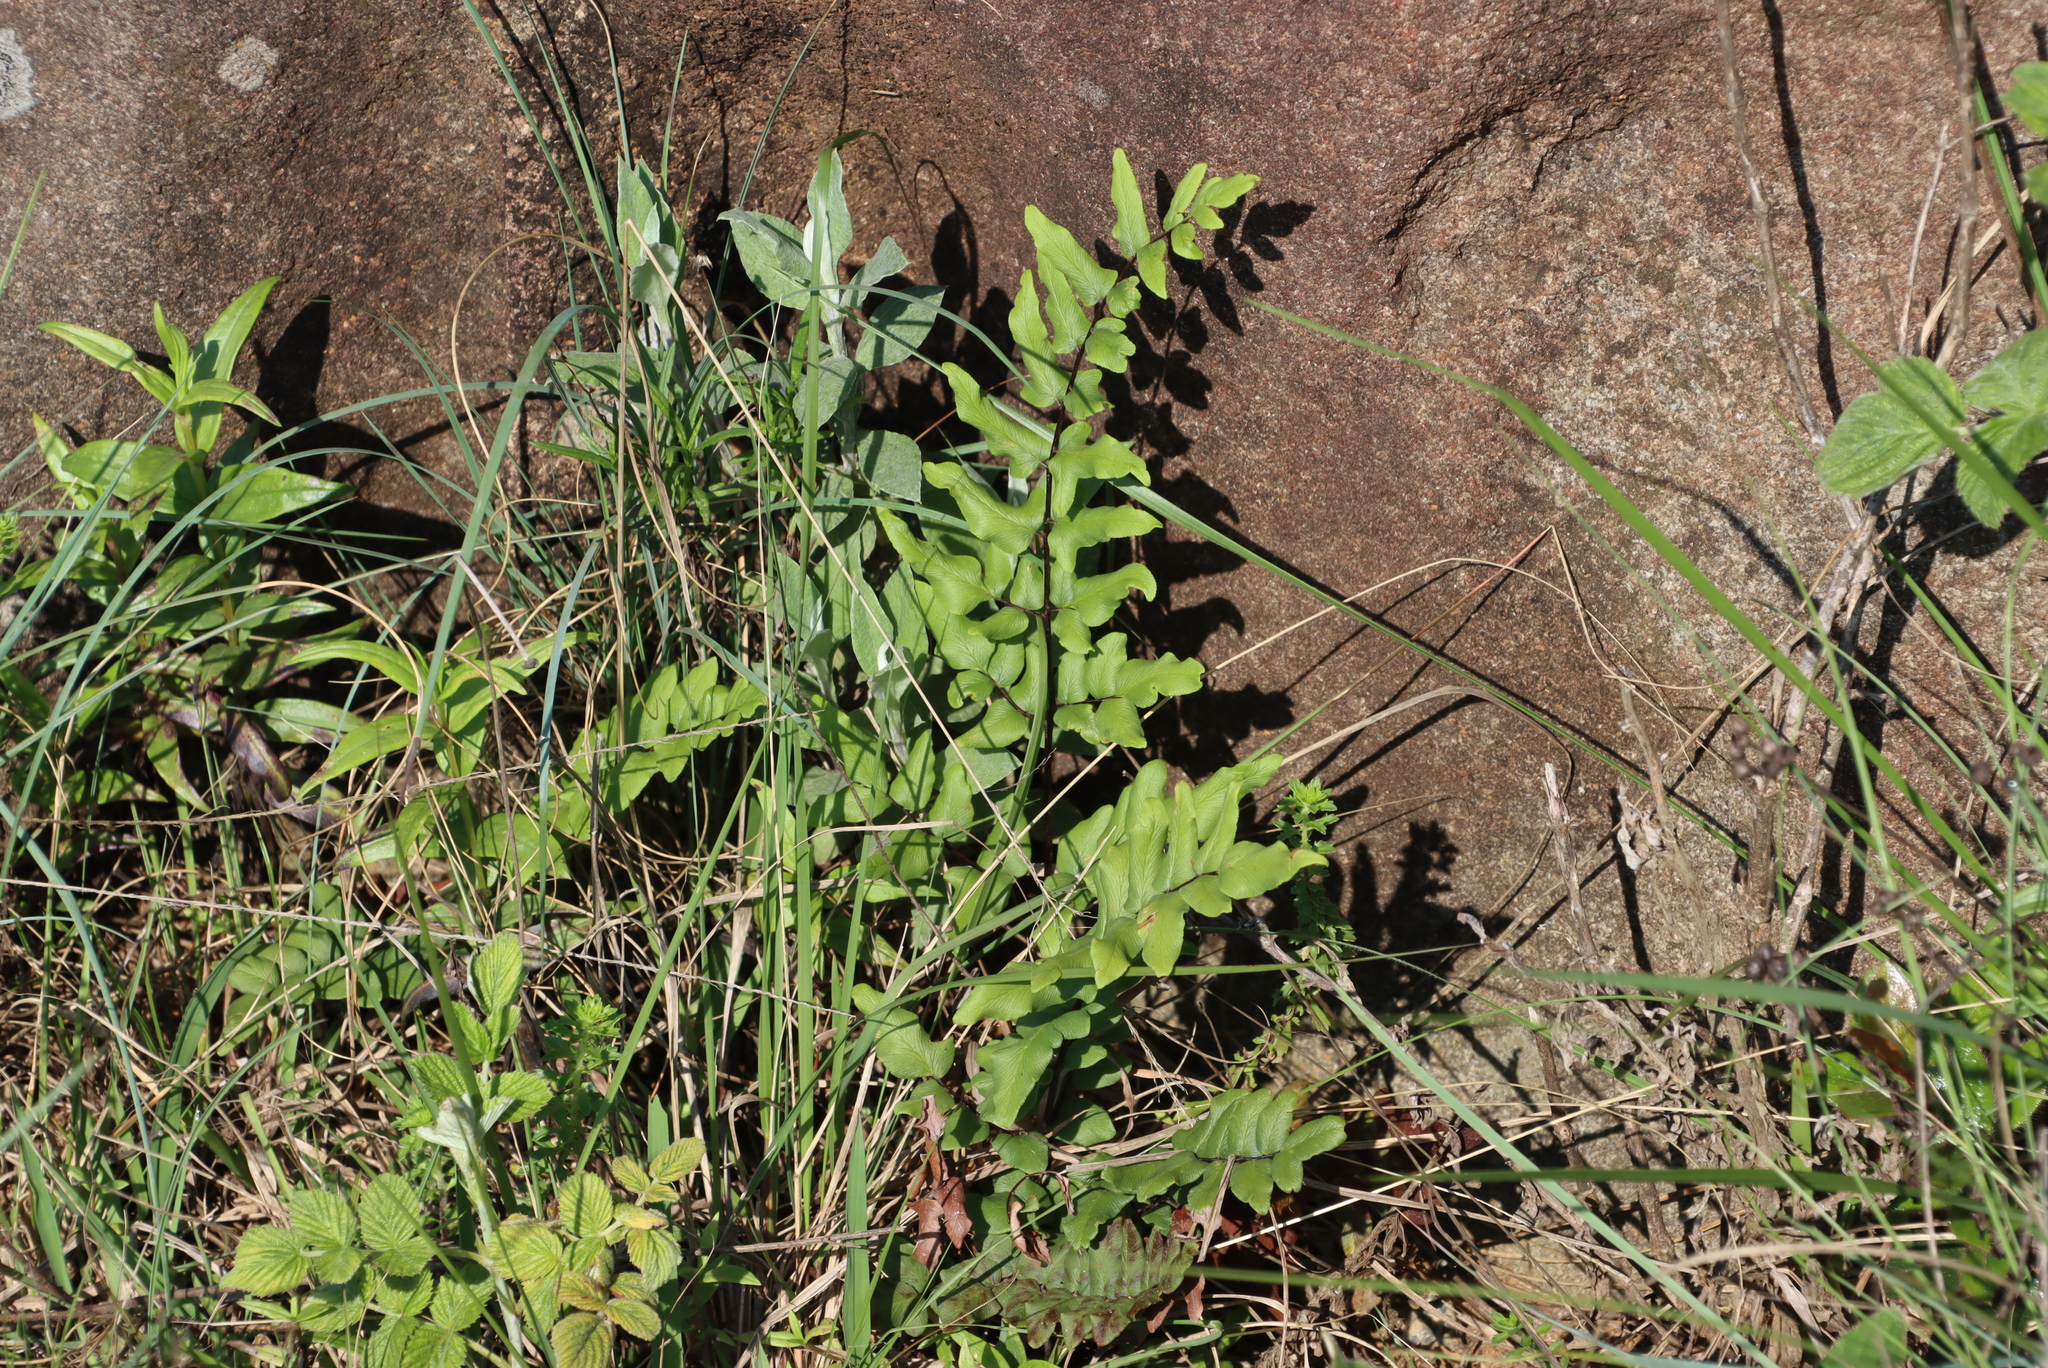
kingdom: Plantae
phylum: Tracheophyta
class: Polypodiopsida
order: Polypodiales
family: Pteridaceae
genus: Cheilanthes
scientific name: Cheilanthes viridis
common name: Green cliffbrake
